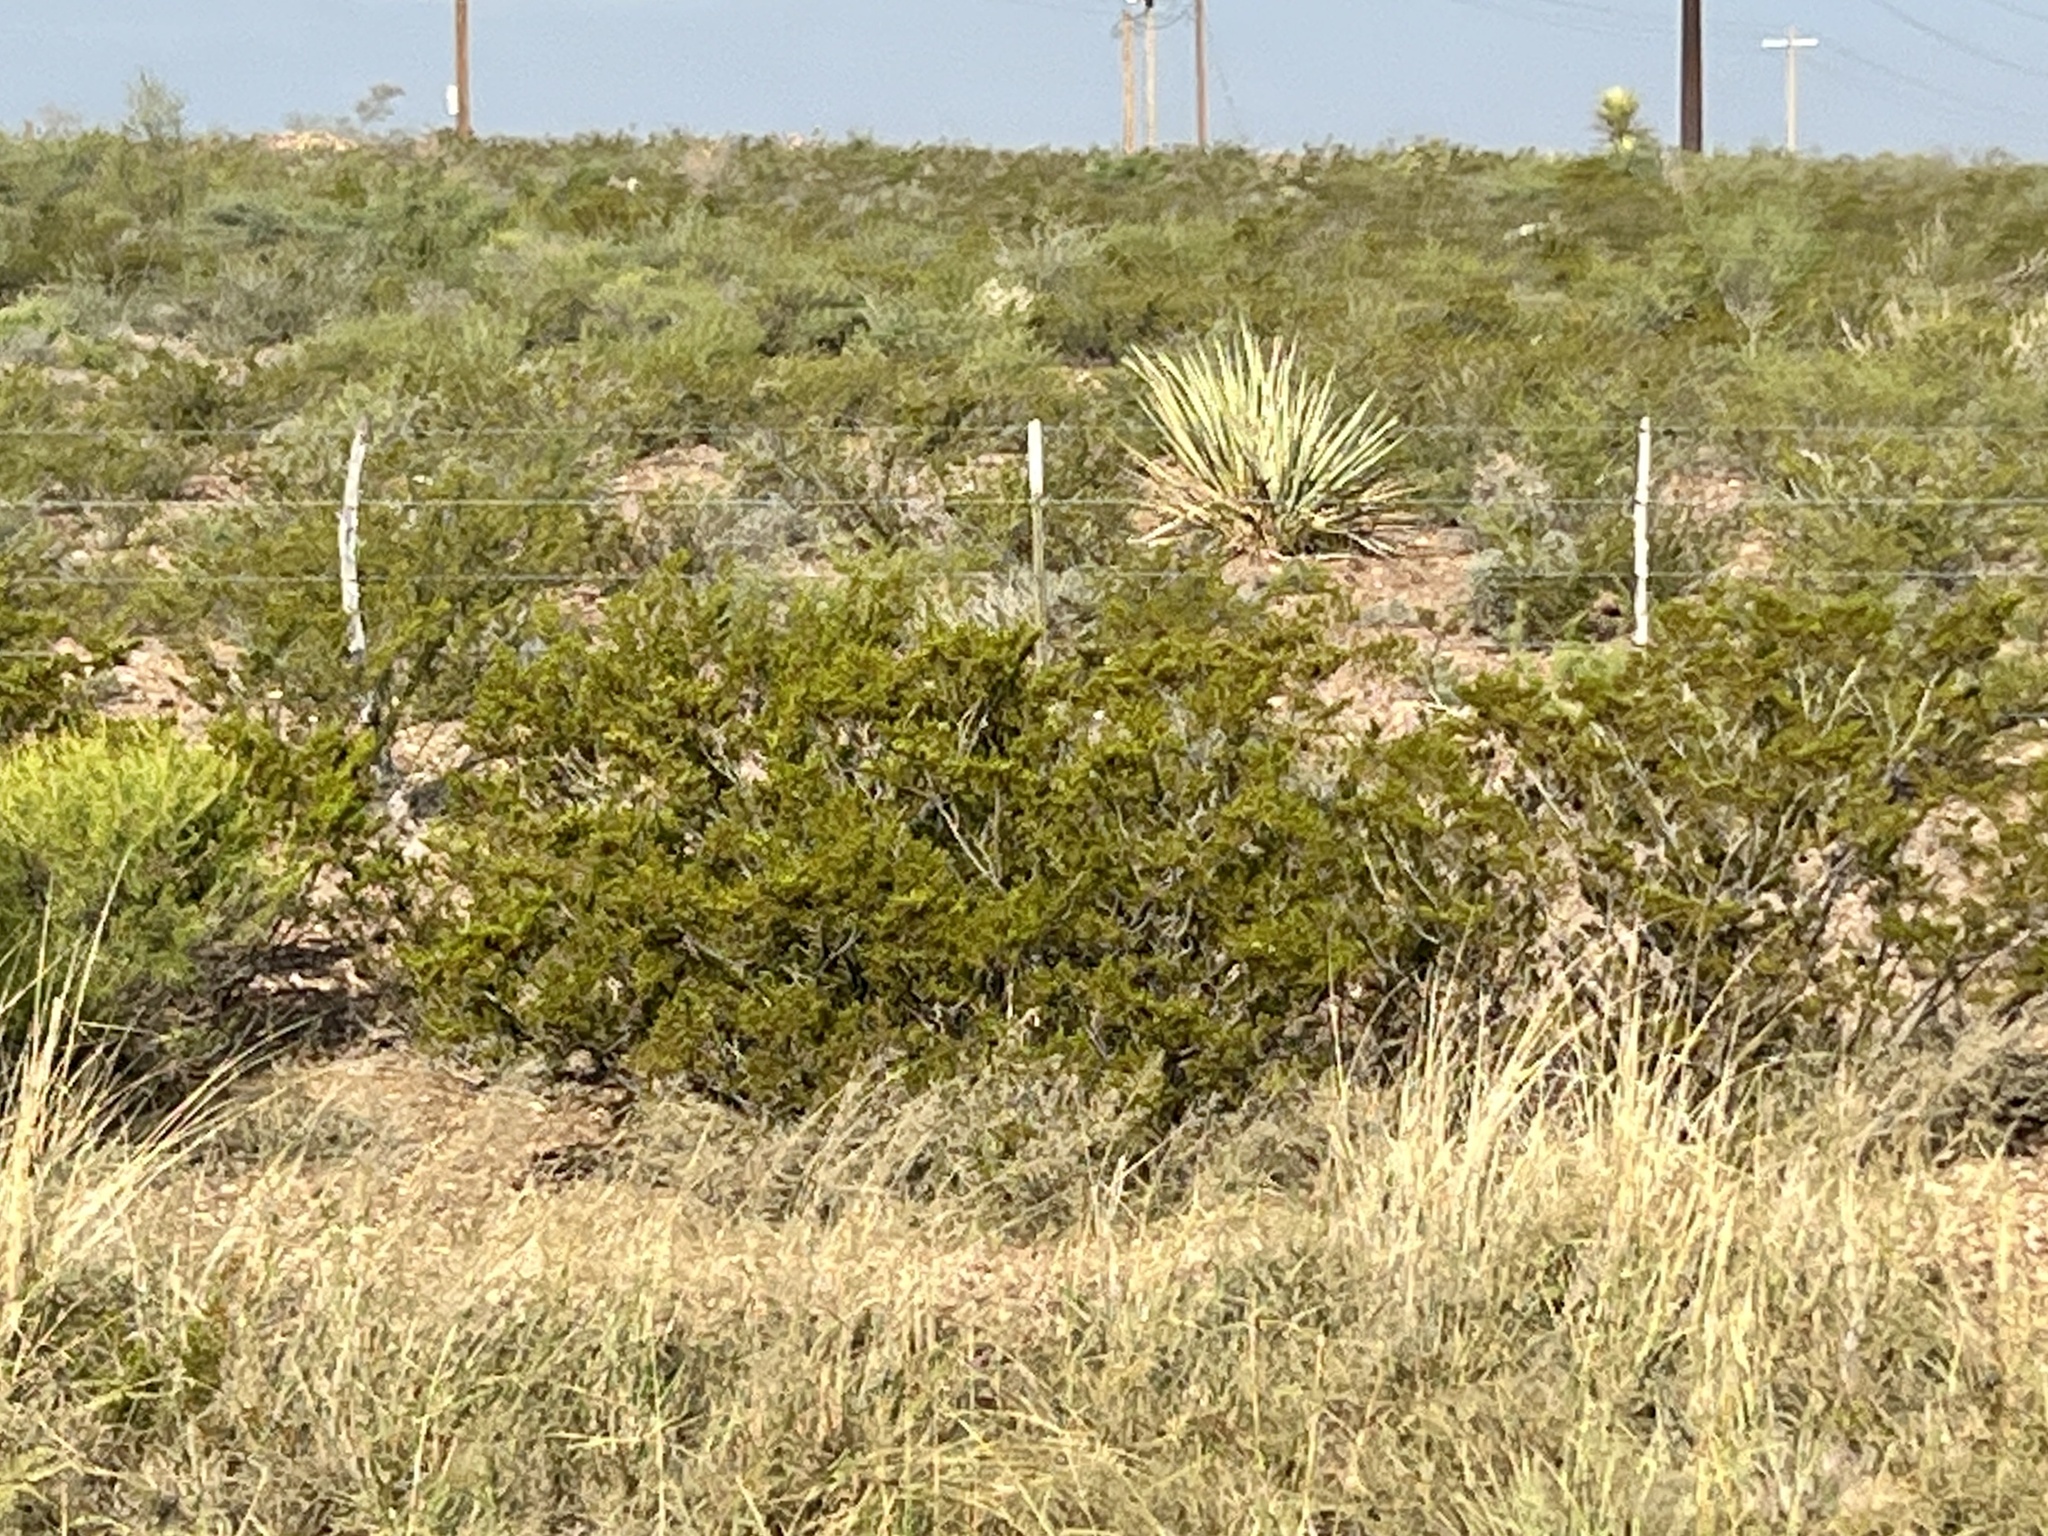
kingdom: Plantae
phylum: Tracheophyta
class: Magnoliopsida
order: Zygophyllales
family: Zygophyllaceae
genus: Larrea
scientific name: Larrea tridentata
